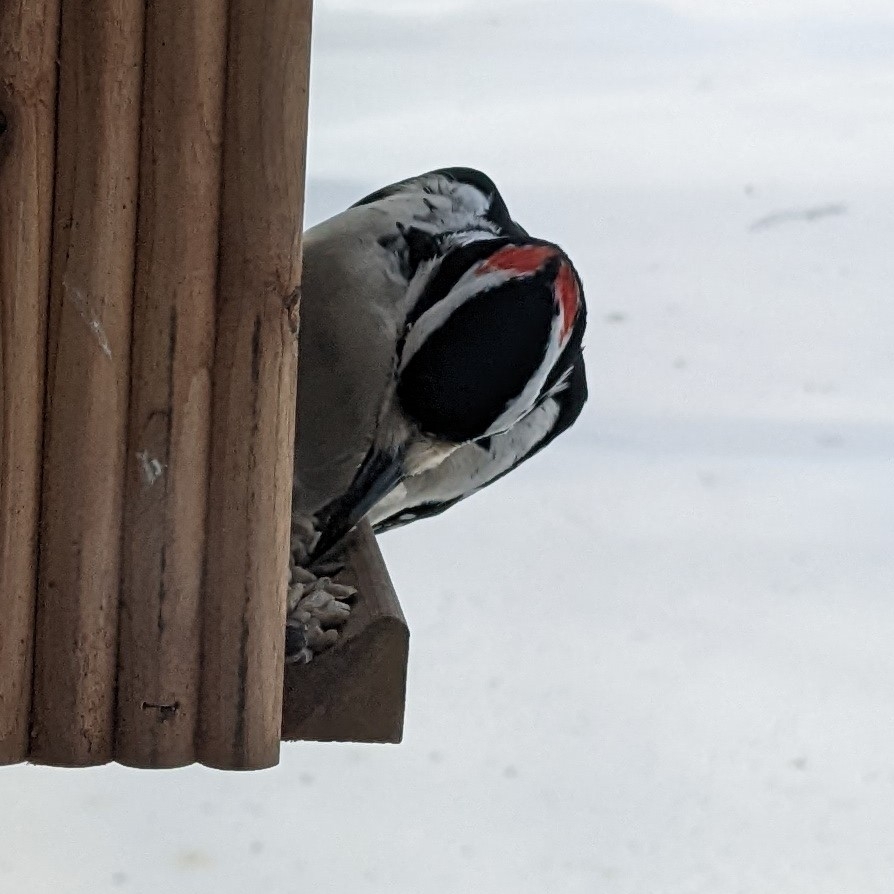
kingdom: Animalia
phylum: Chordata
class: Aves
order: Piciformes
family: Picidae
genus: Leuconotopicus
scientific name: Leuconotopicus villosus
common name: Hairy woodpecker
